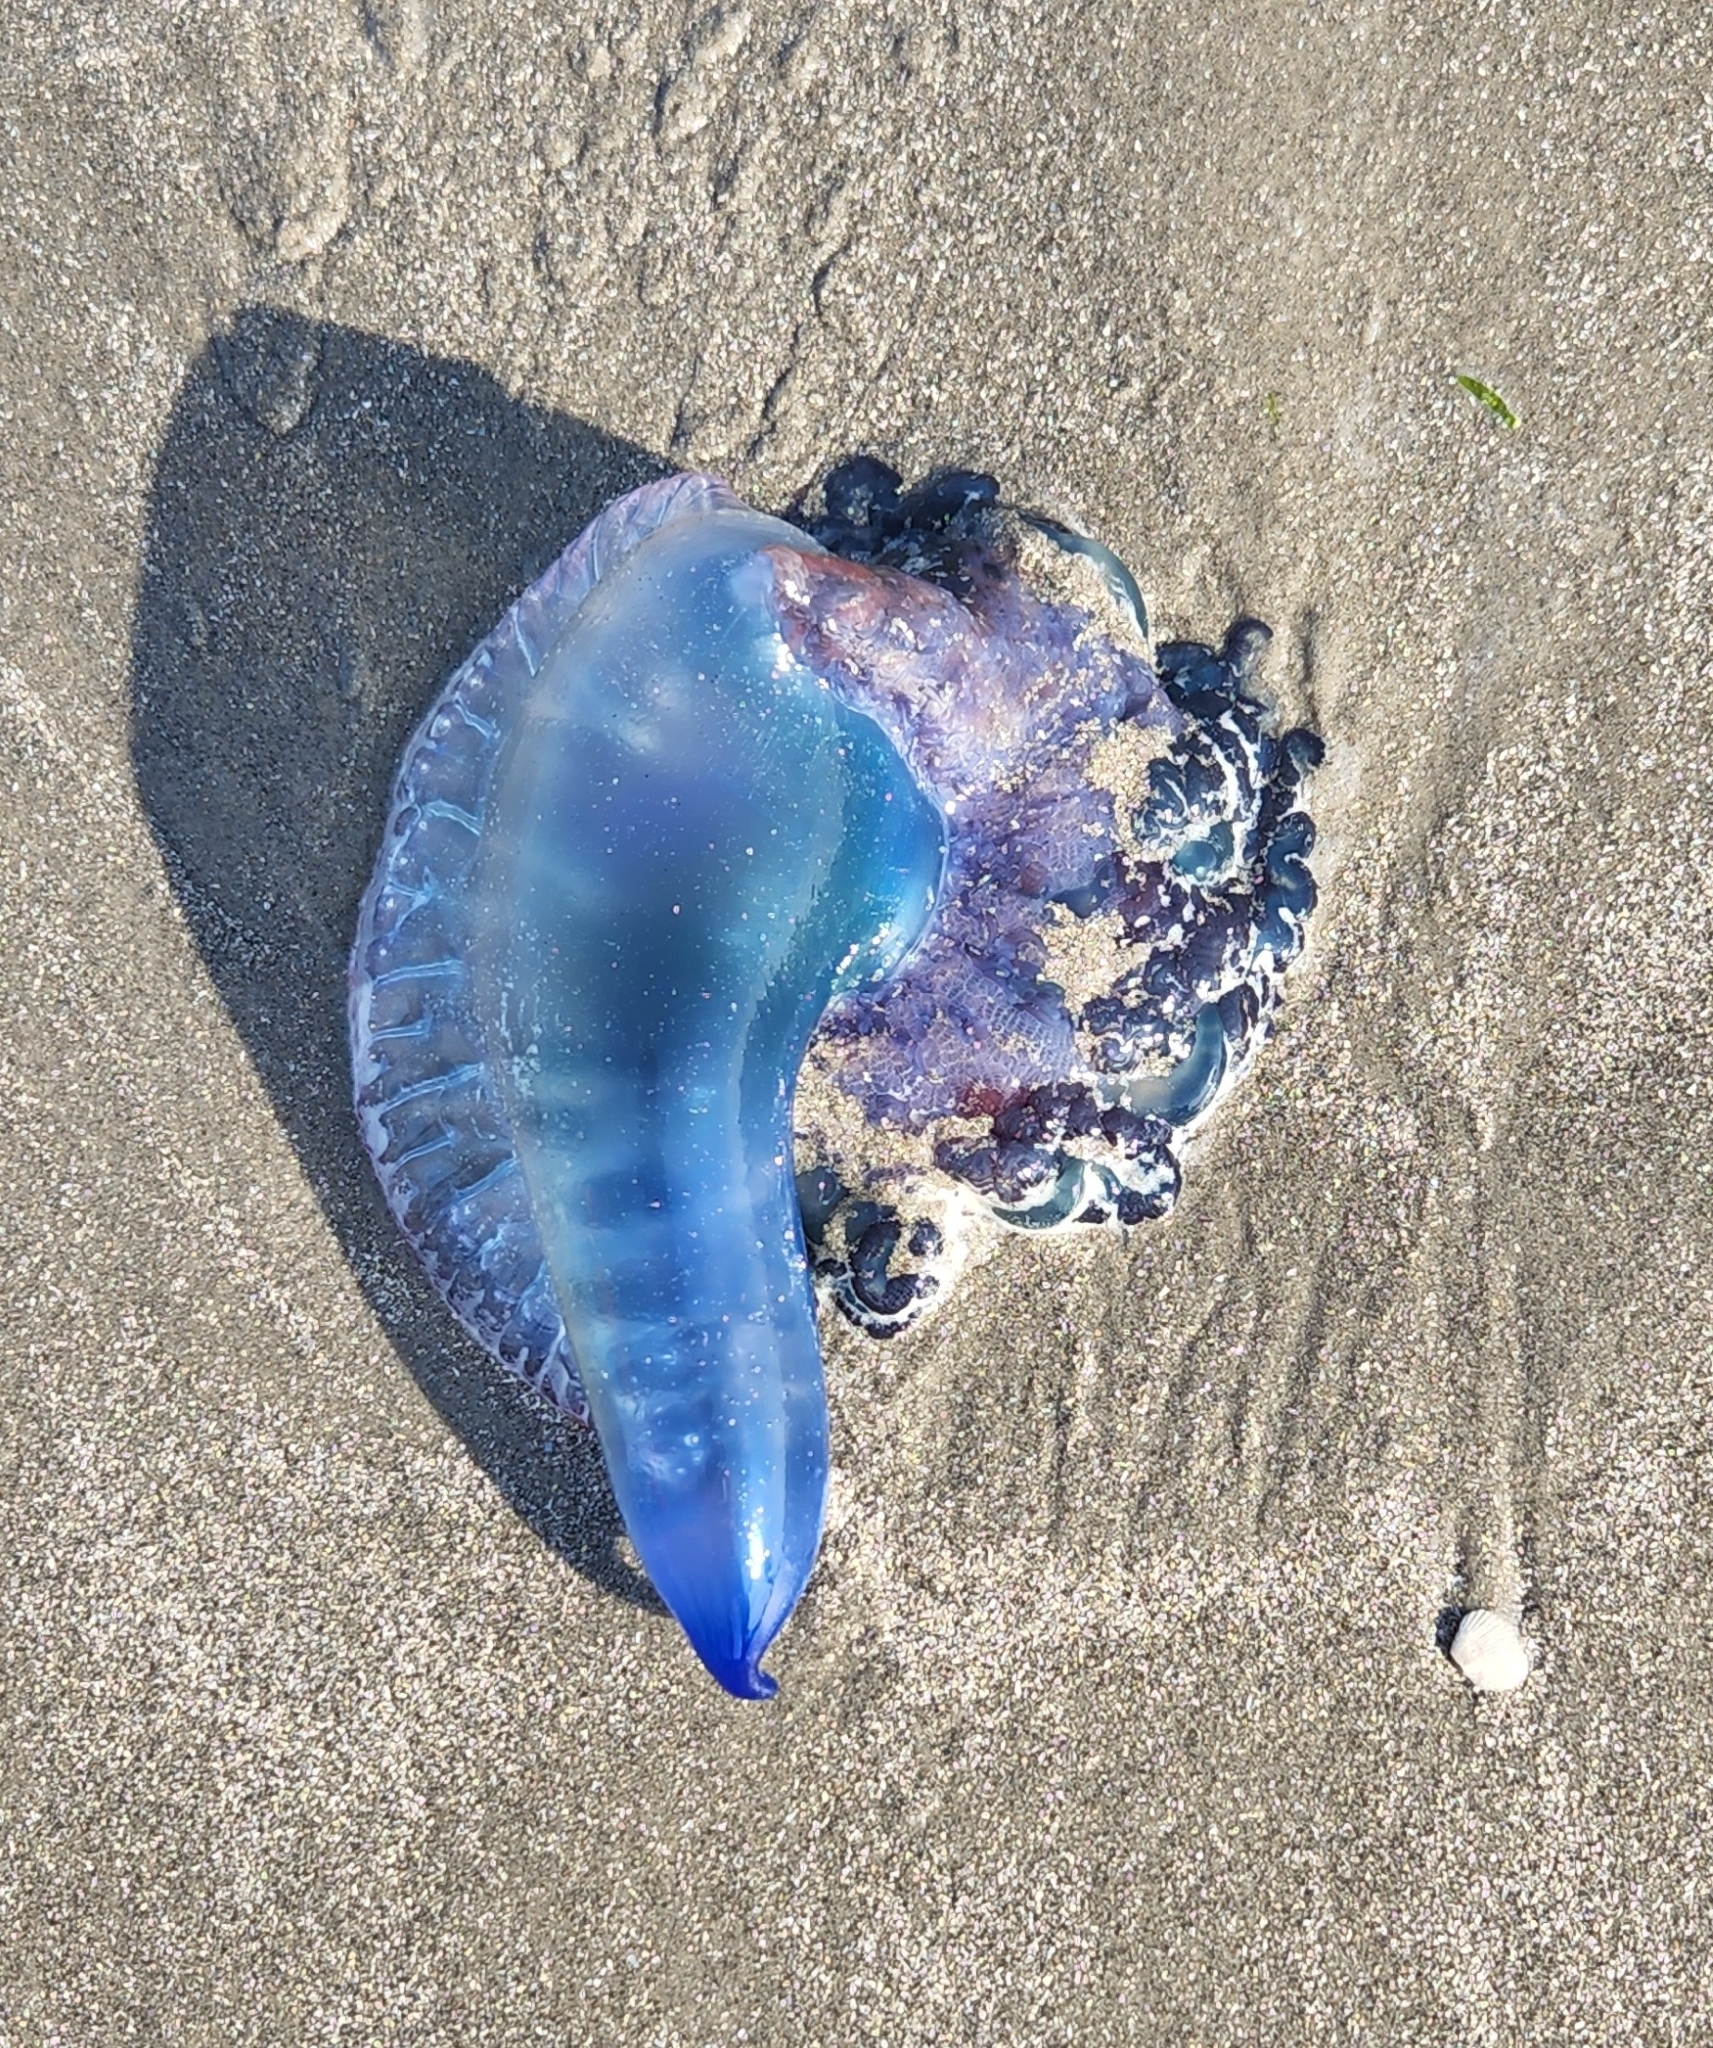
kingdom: Animalia
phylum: Cnidaria
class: Hydrozoa
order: Siphonophorae
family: Physaliidae
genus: Physalia
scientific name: Physalia physalis
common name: Portuguese man-of-war
